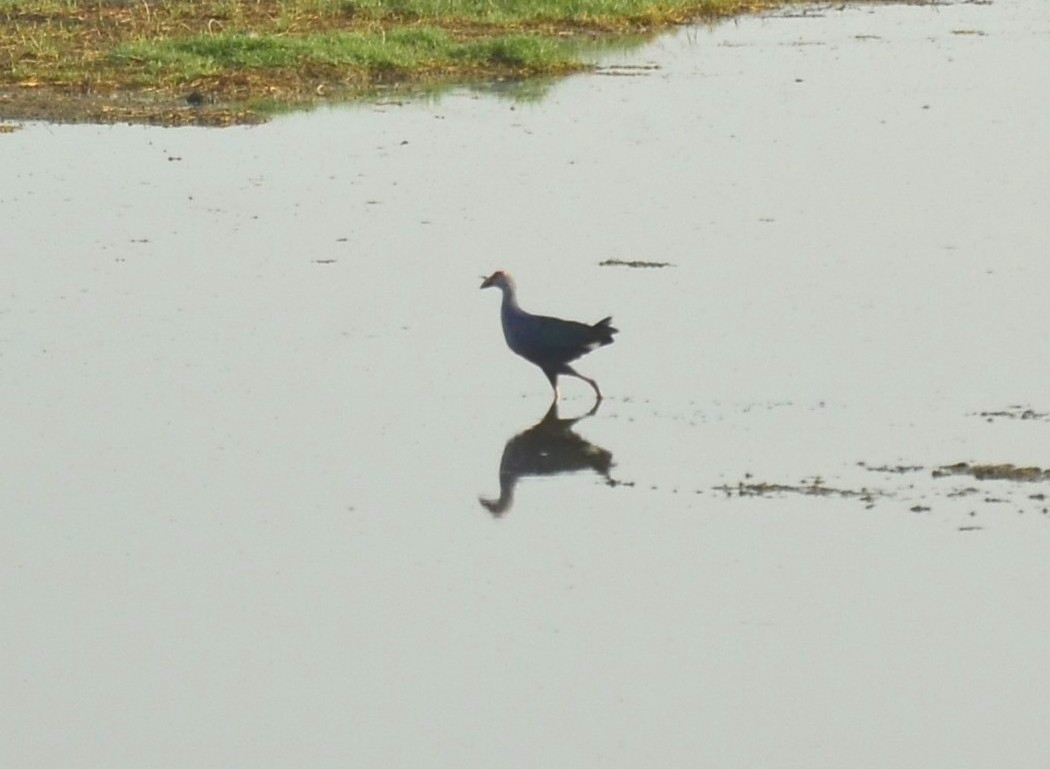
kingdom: Animalia
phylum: Chordata
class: Aves
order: Gruiformes
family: Rallidae
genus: Porphyrio
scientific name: Porphyrio porphyrio
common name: Purple swamphen
